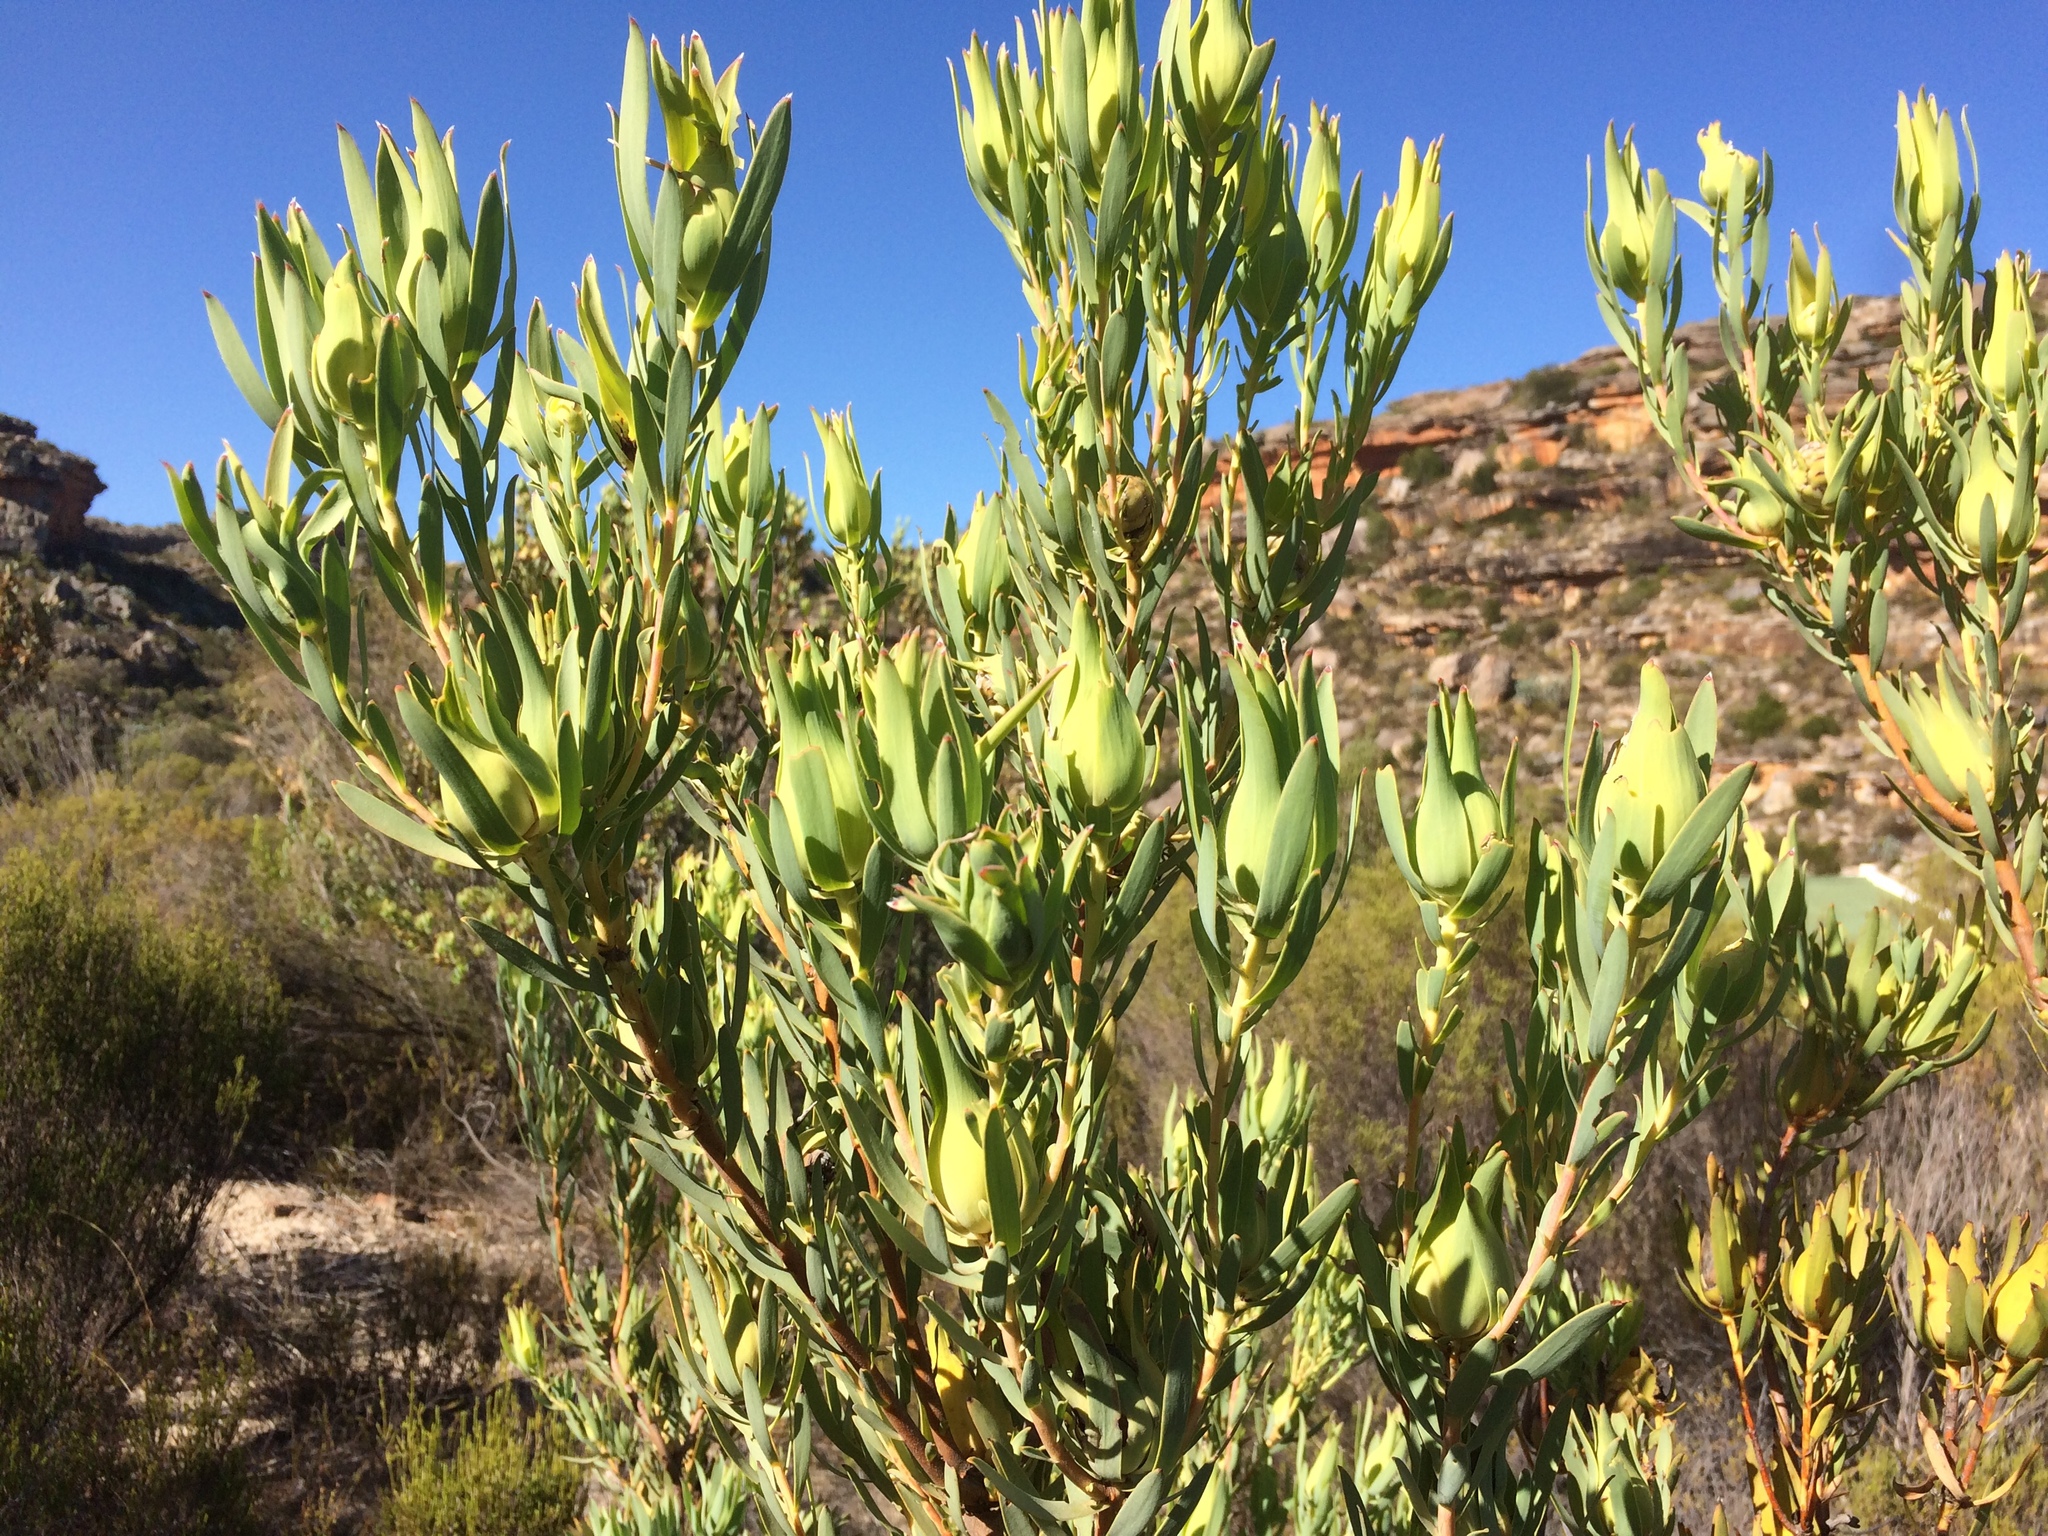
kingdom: Plantae
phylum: Tracheophyta
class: Magnoliopsida
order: Proteales
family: Proteaceae
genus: Leucadendron
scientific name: Leucadendron procerum
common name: Ivory conebush
